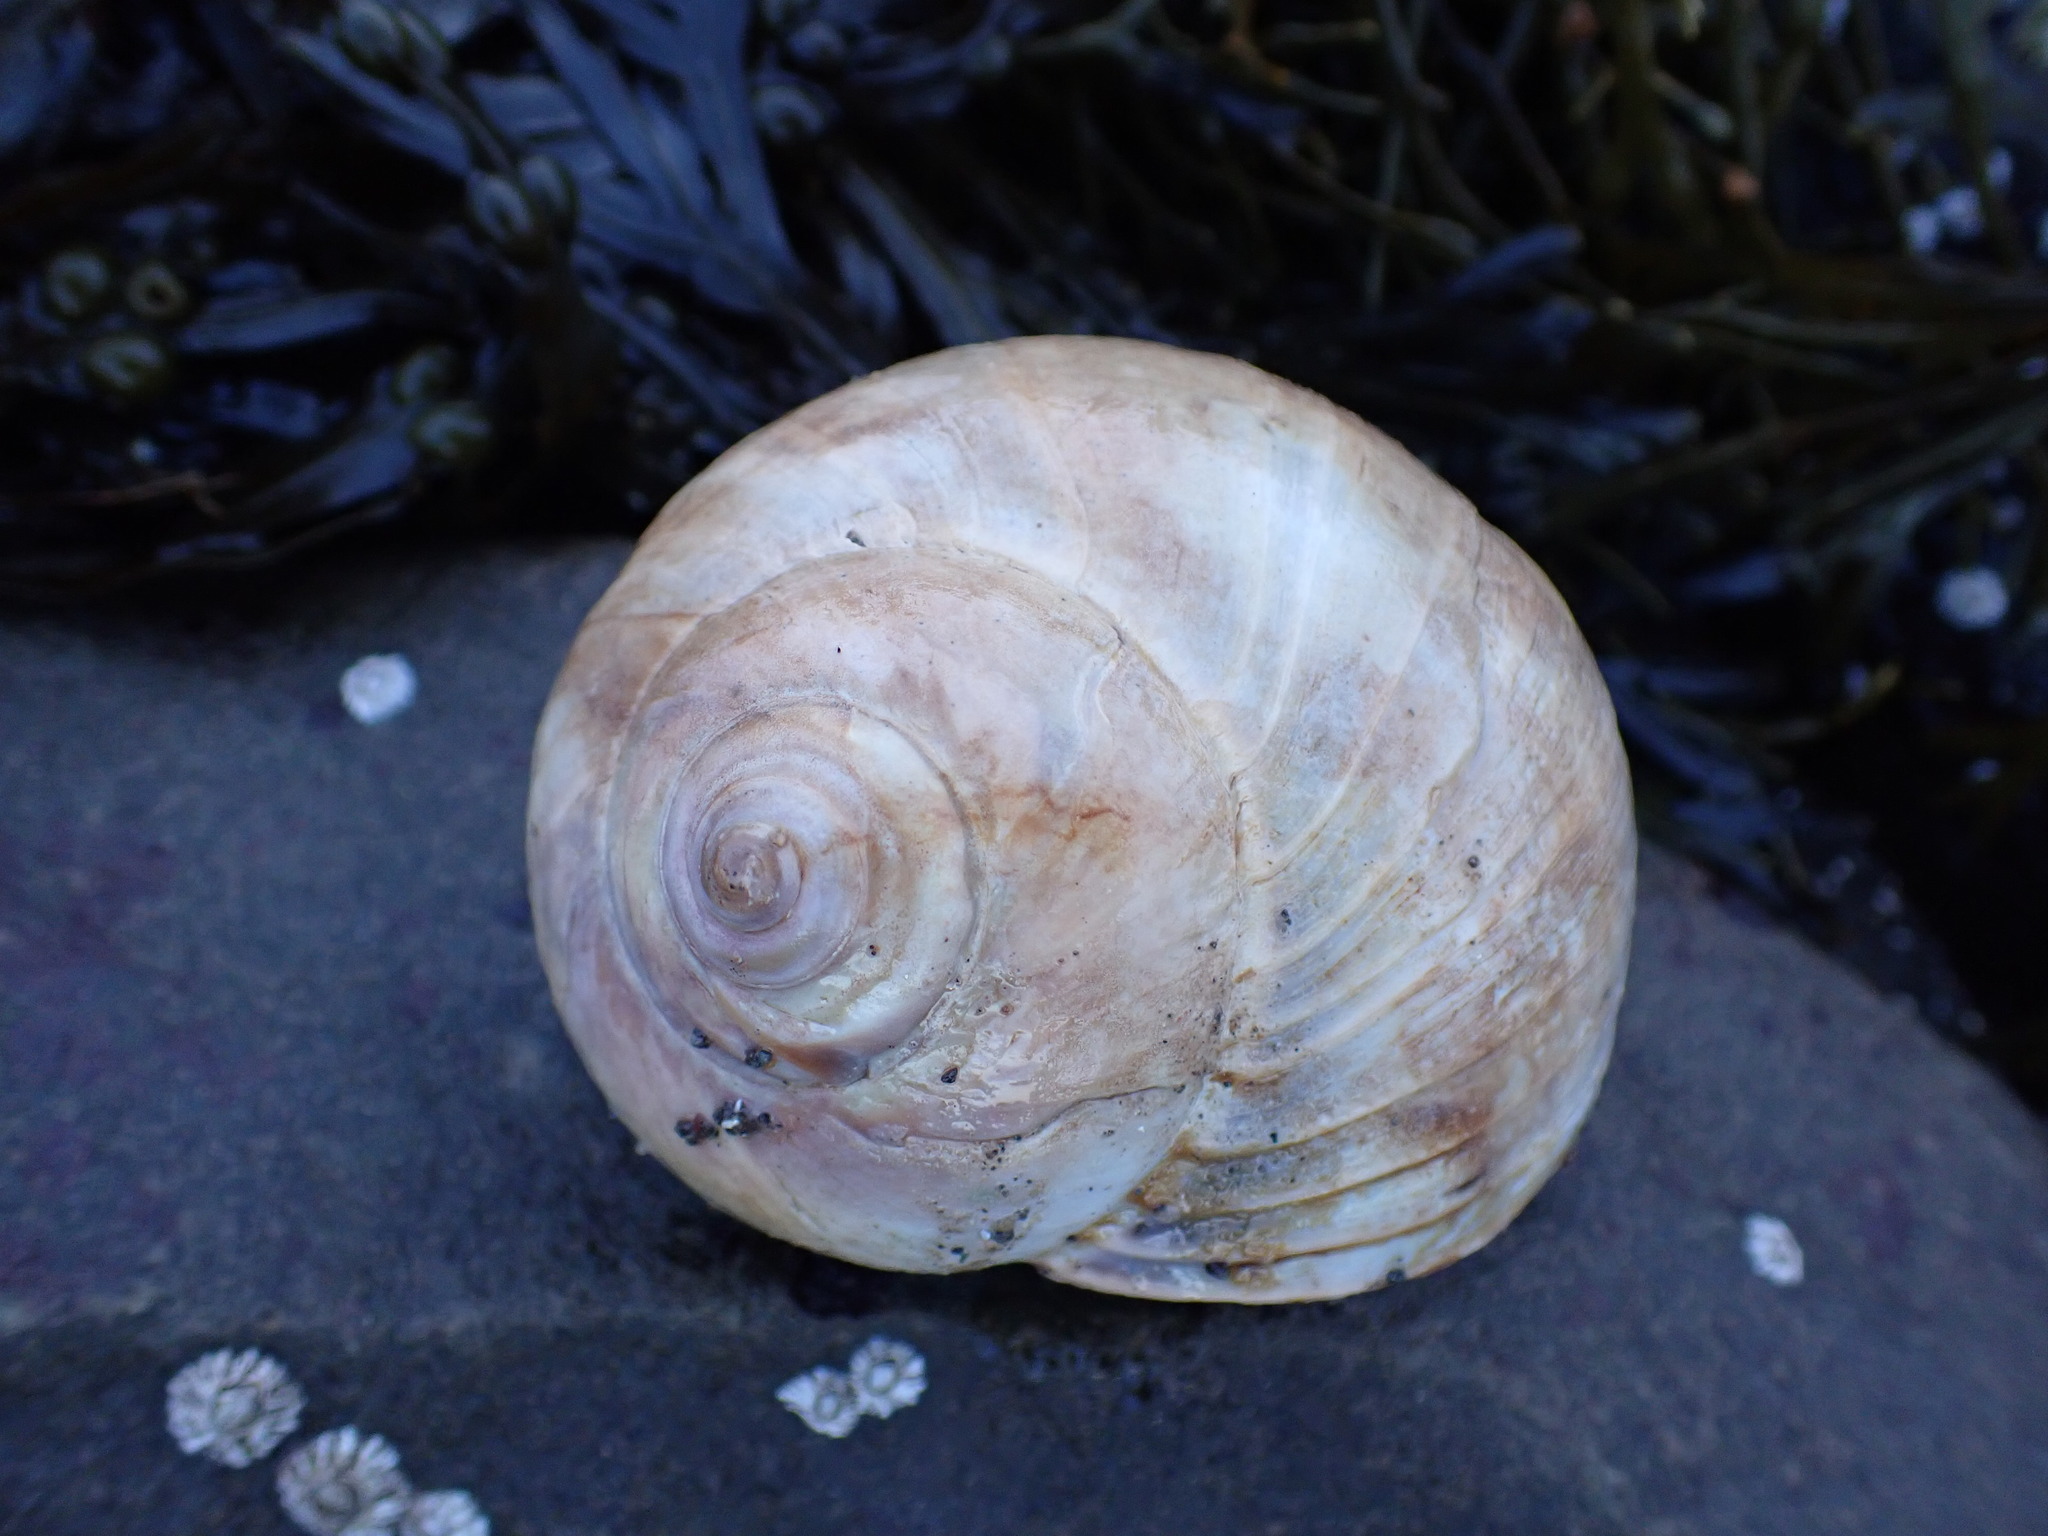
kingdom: Animalia
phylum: Mollusca
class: Gastropoda
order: Littorinimorpha
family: Naticidae
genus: Euspira
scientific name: Euspira heros
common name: Common northern moonsnail
